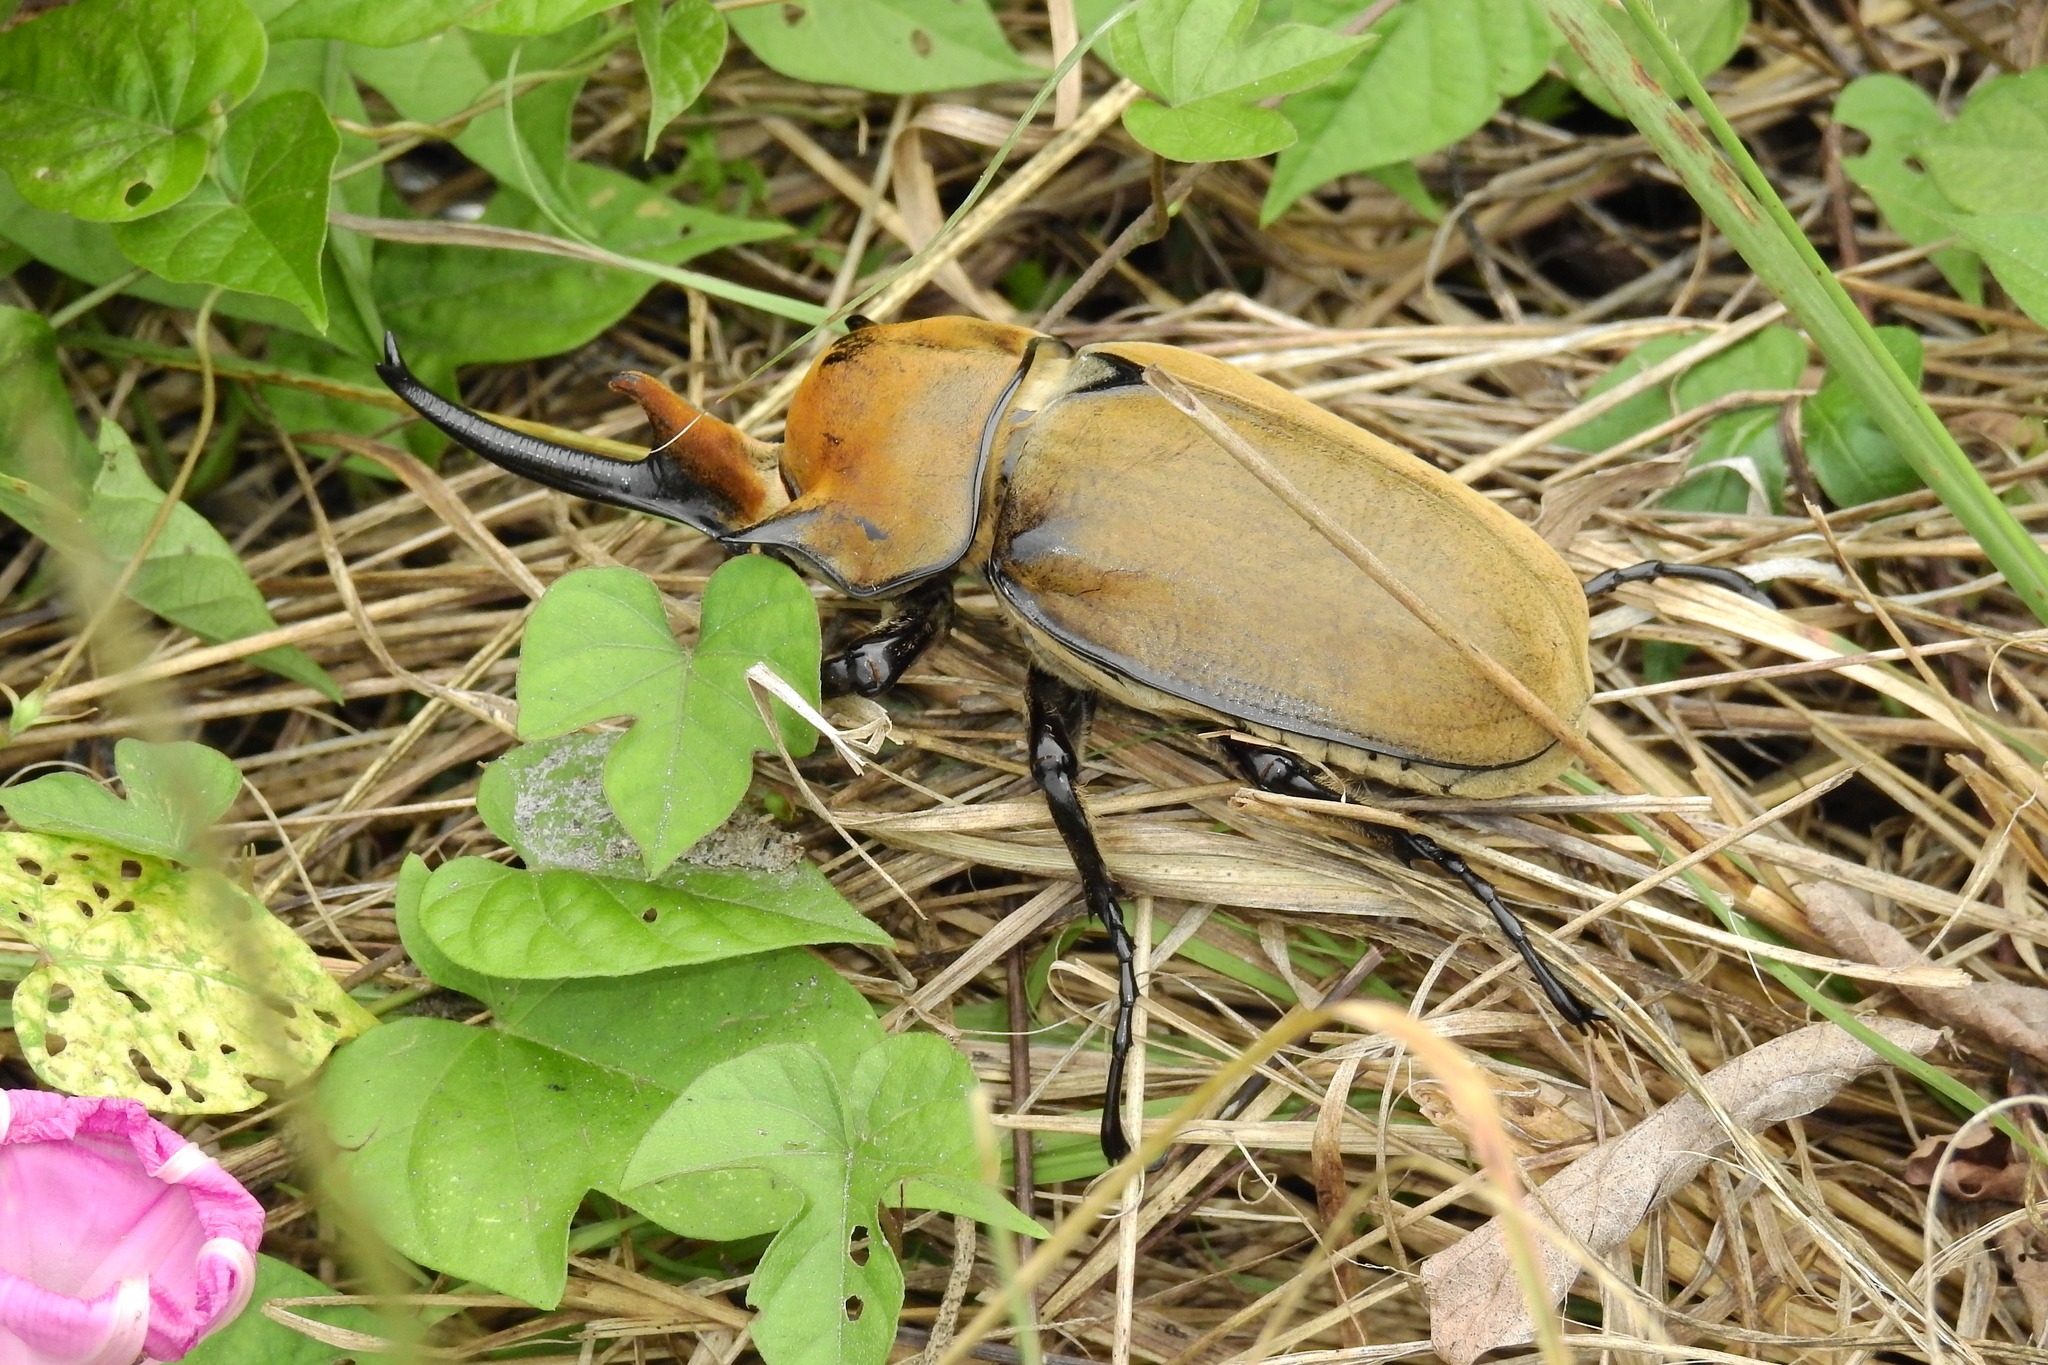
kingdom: Animalia
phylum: Arthropoda
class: Insecta
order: Coleoptera
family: Scarabaeidae
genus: Megasoma
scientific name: Megasoma elephas
